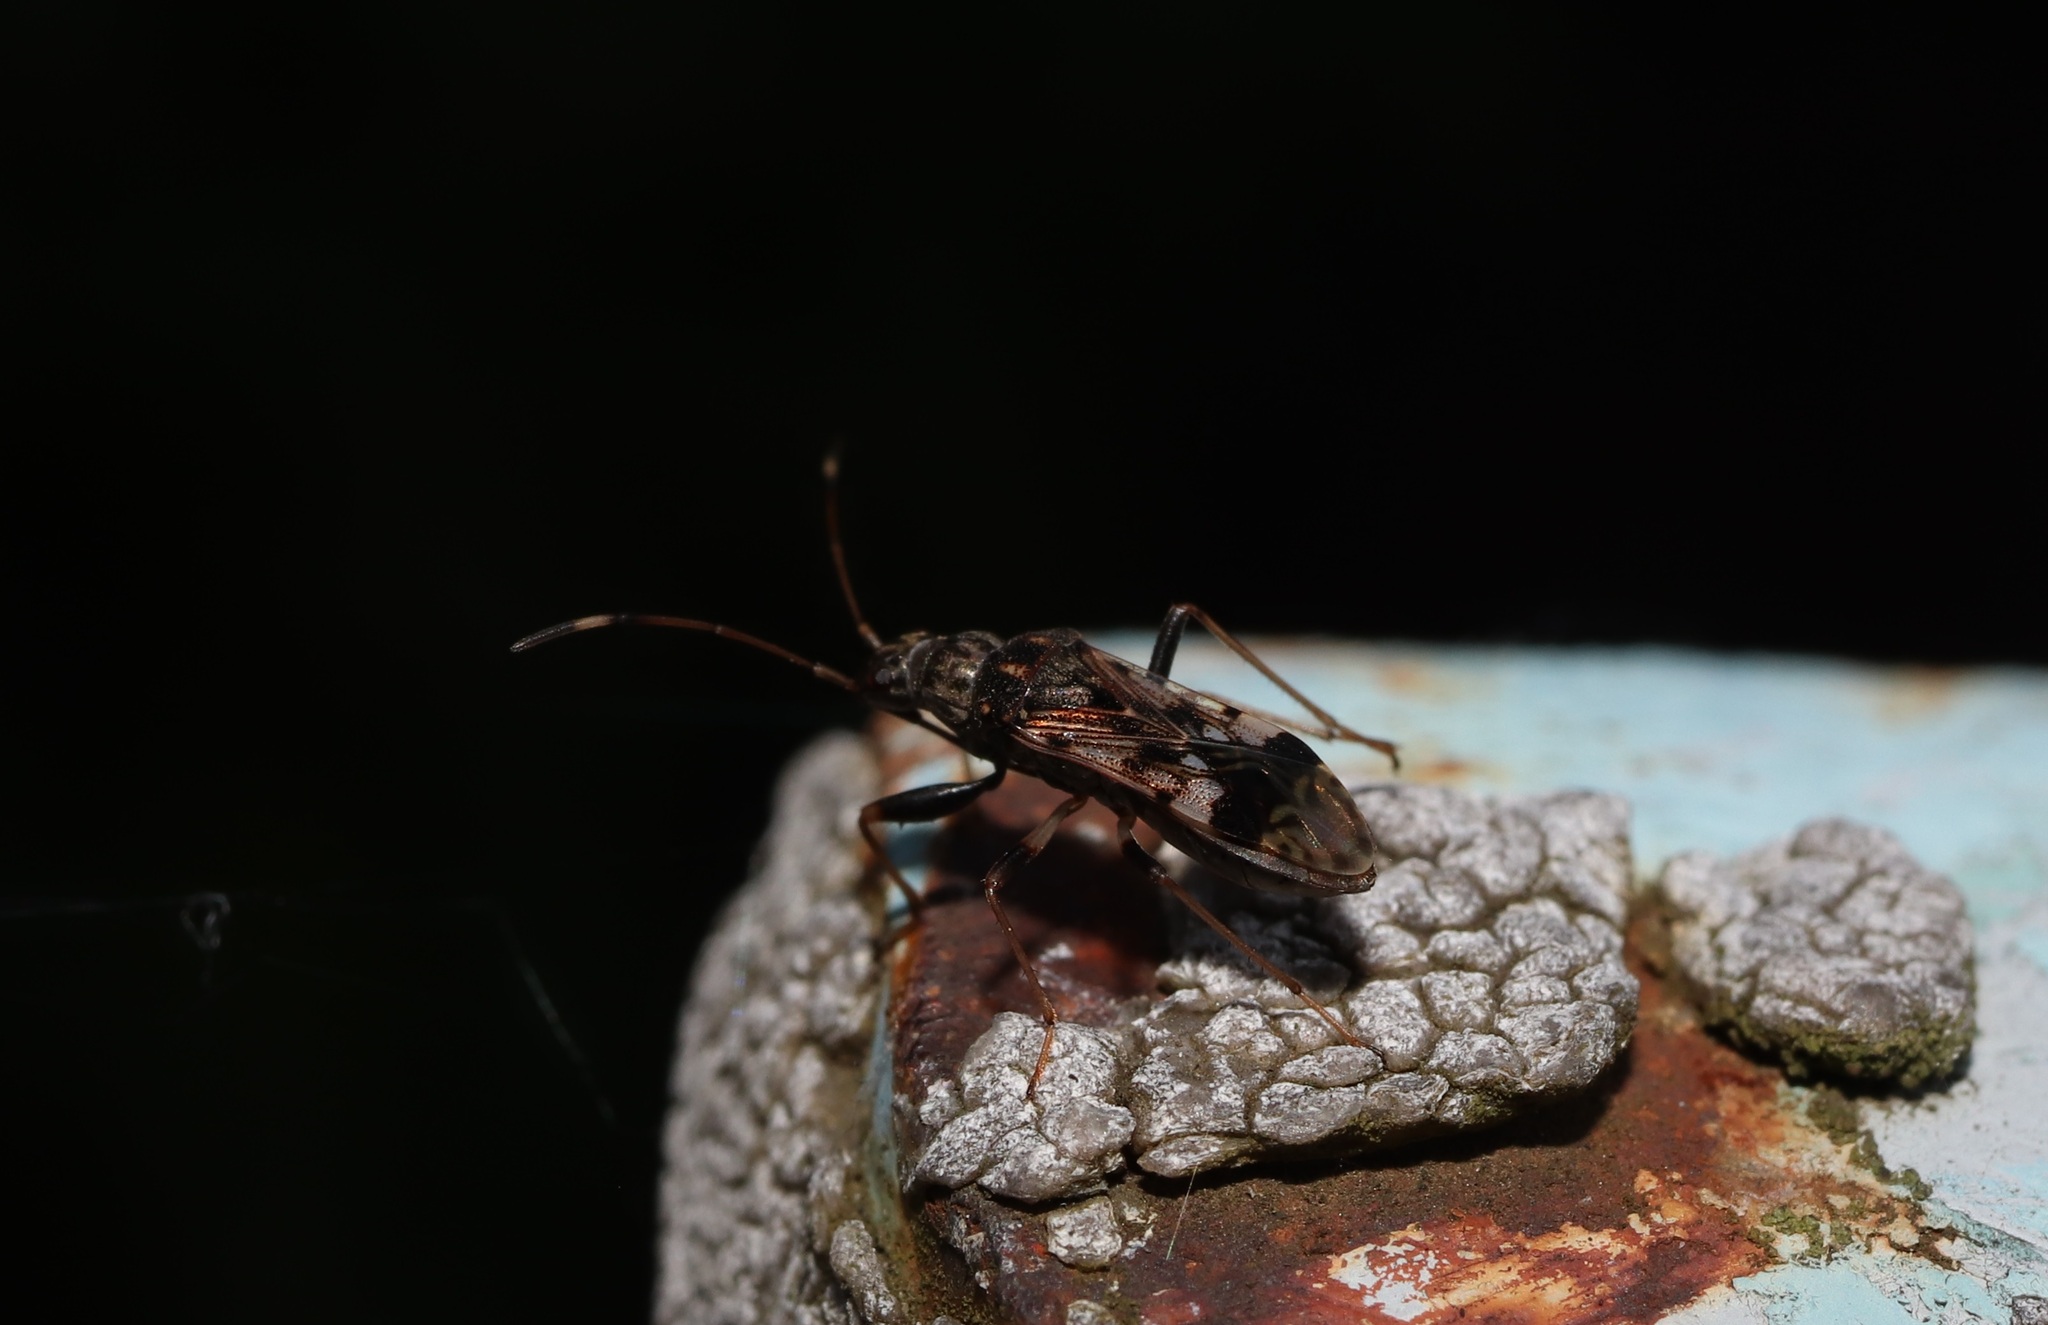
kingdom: Animalia
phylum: Arthropoda
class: Insecta
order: Hemiptera
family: Rhyparochromidae
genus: Gyndes
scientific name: Gyndes pallicornis
